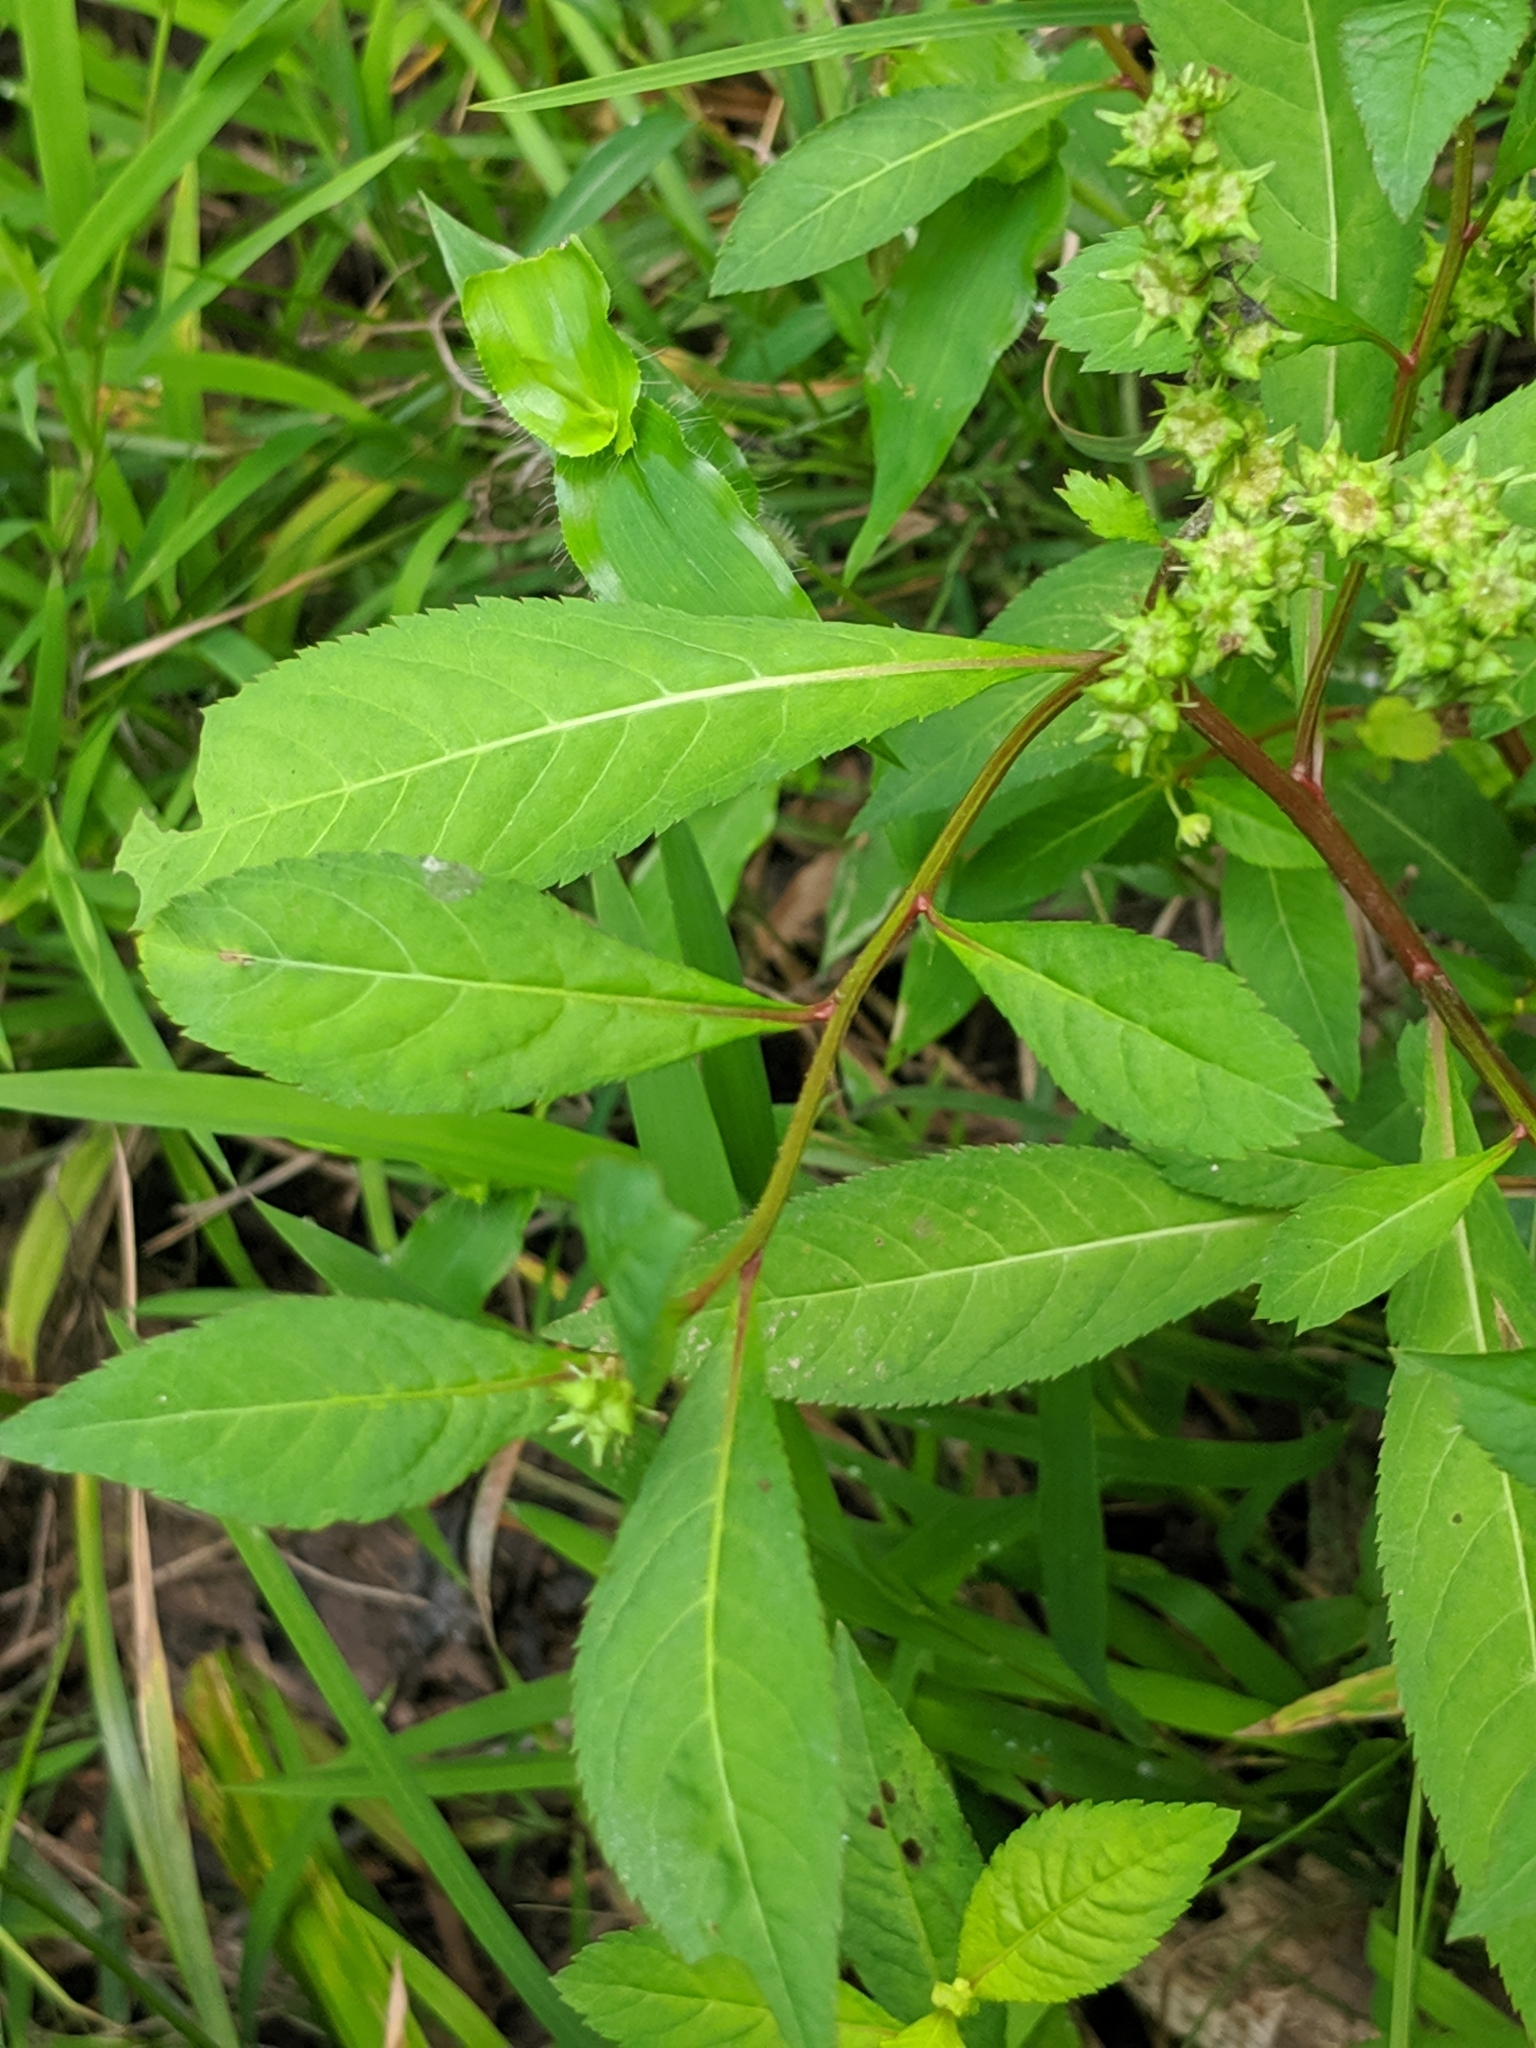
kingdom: Plantae
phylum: Tracheophyta
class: Magnoliopsida
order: Saxifragales
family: Penthoraceae
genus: Penthorum
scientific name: Penthorum sedoides
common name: Ditch stonecrop
